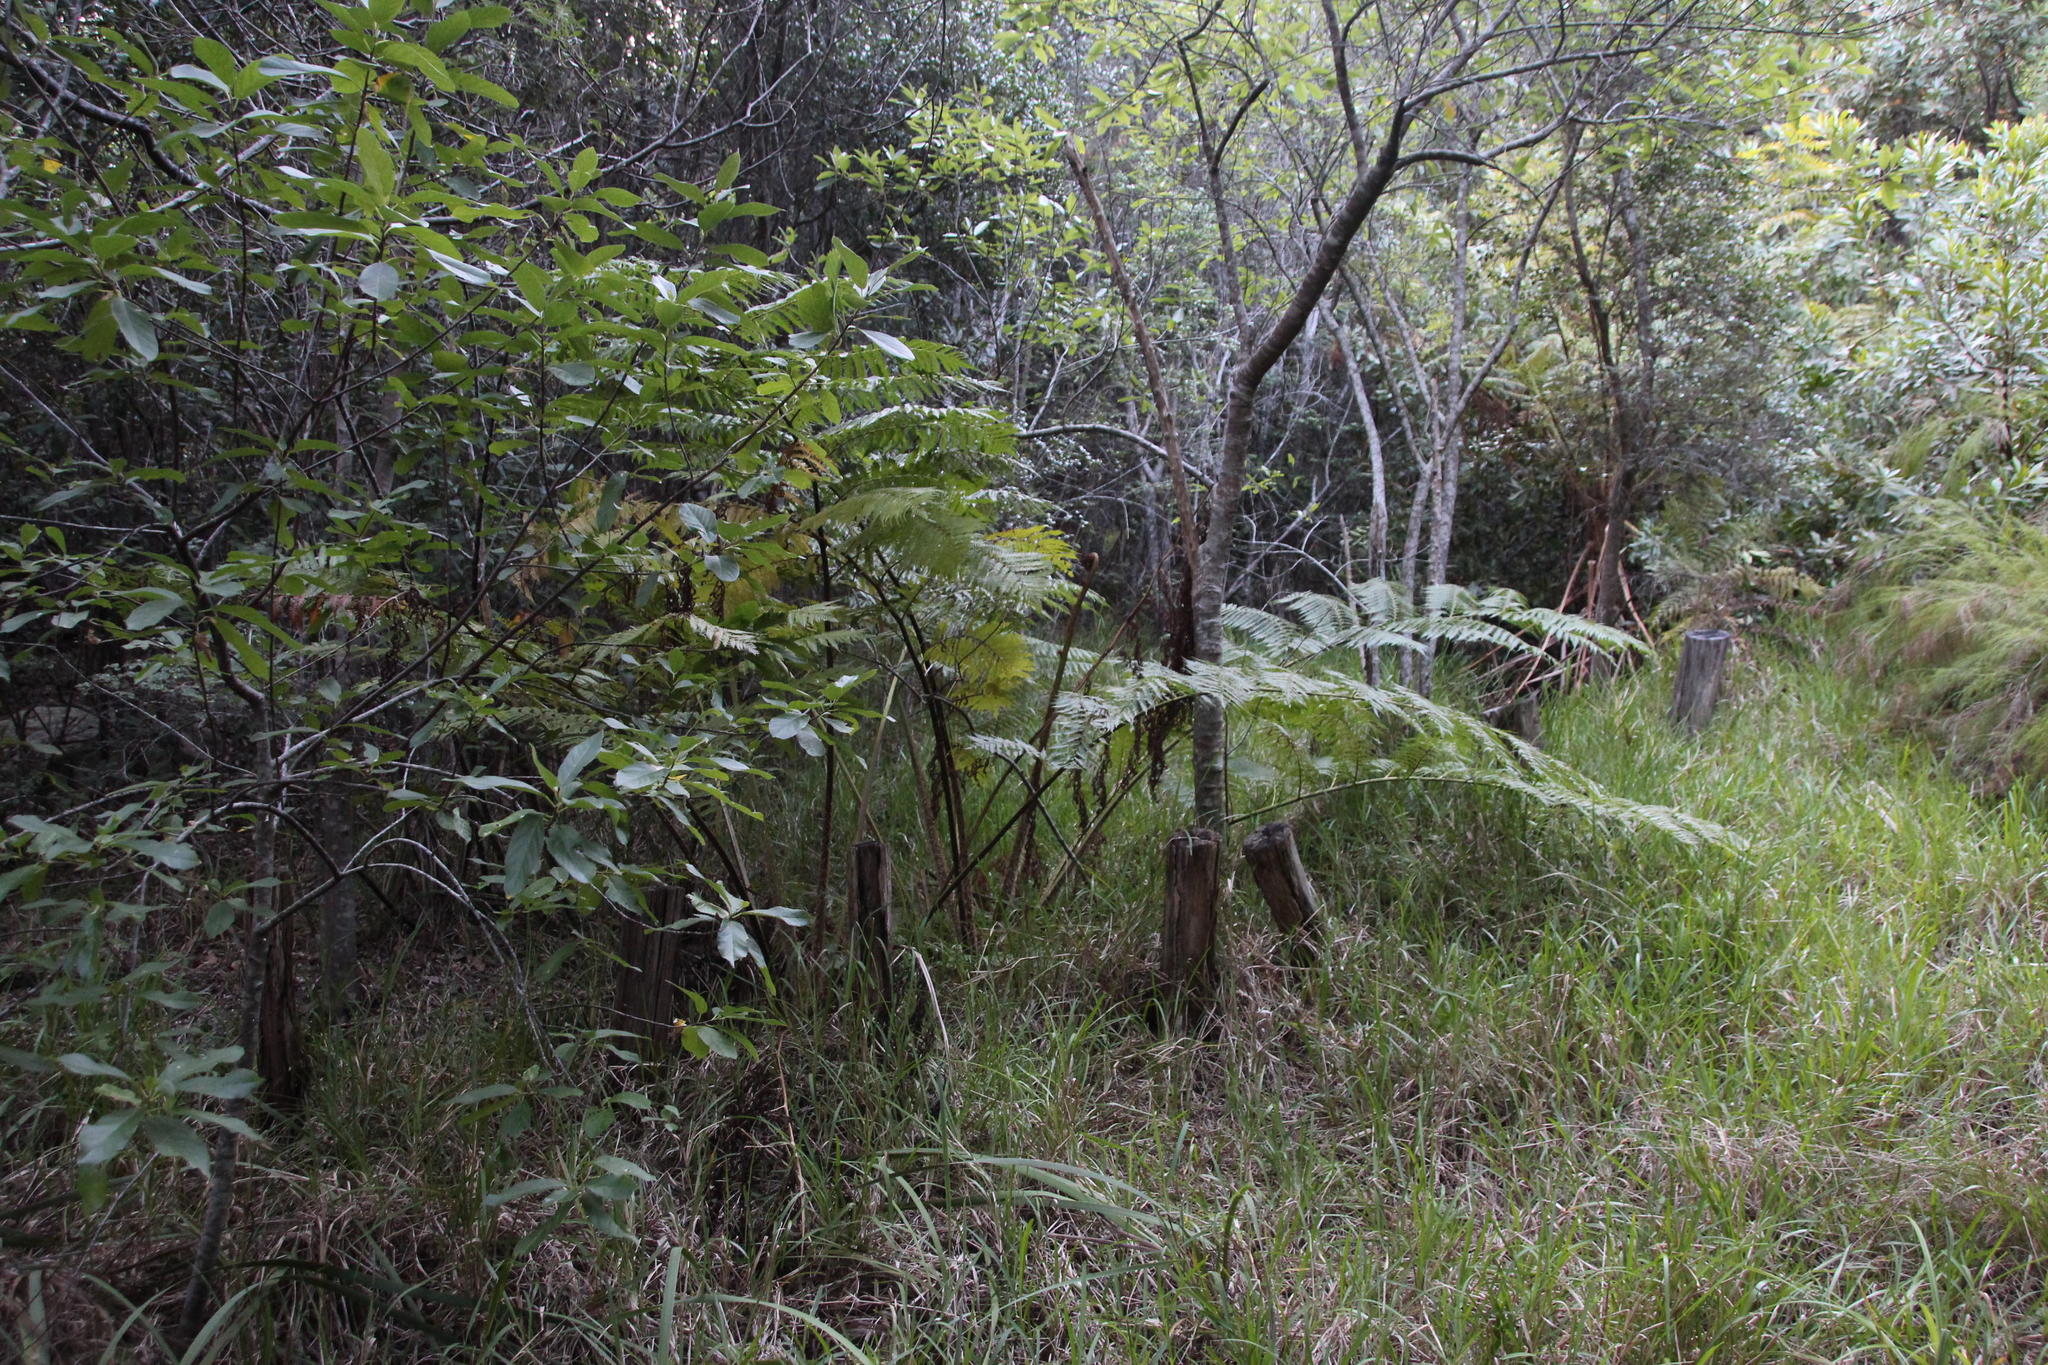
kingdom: Plantae
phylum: Tracheophyta
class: Polypodiopsida
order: Cyatheales
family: Cyatheaceae
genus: Sphaeropteris
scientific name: Sphaeropteris cooperi
